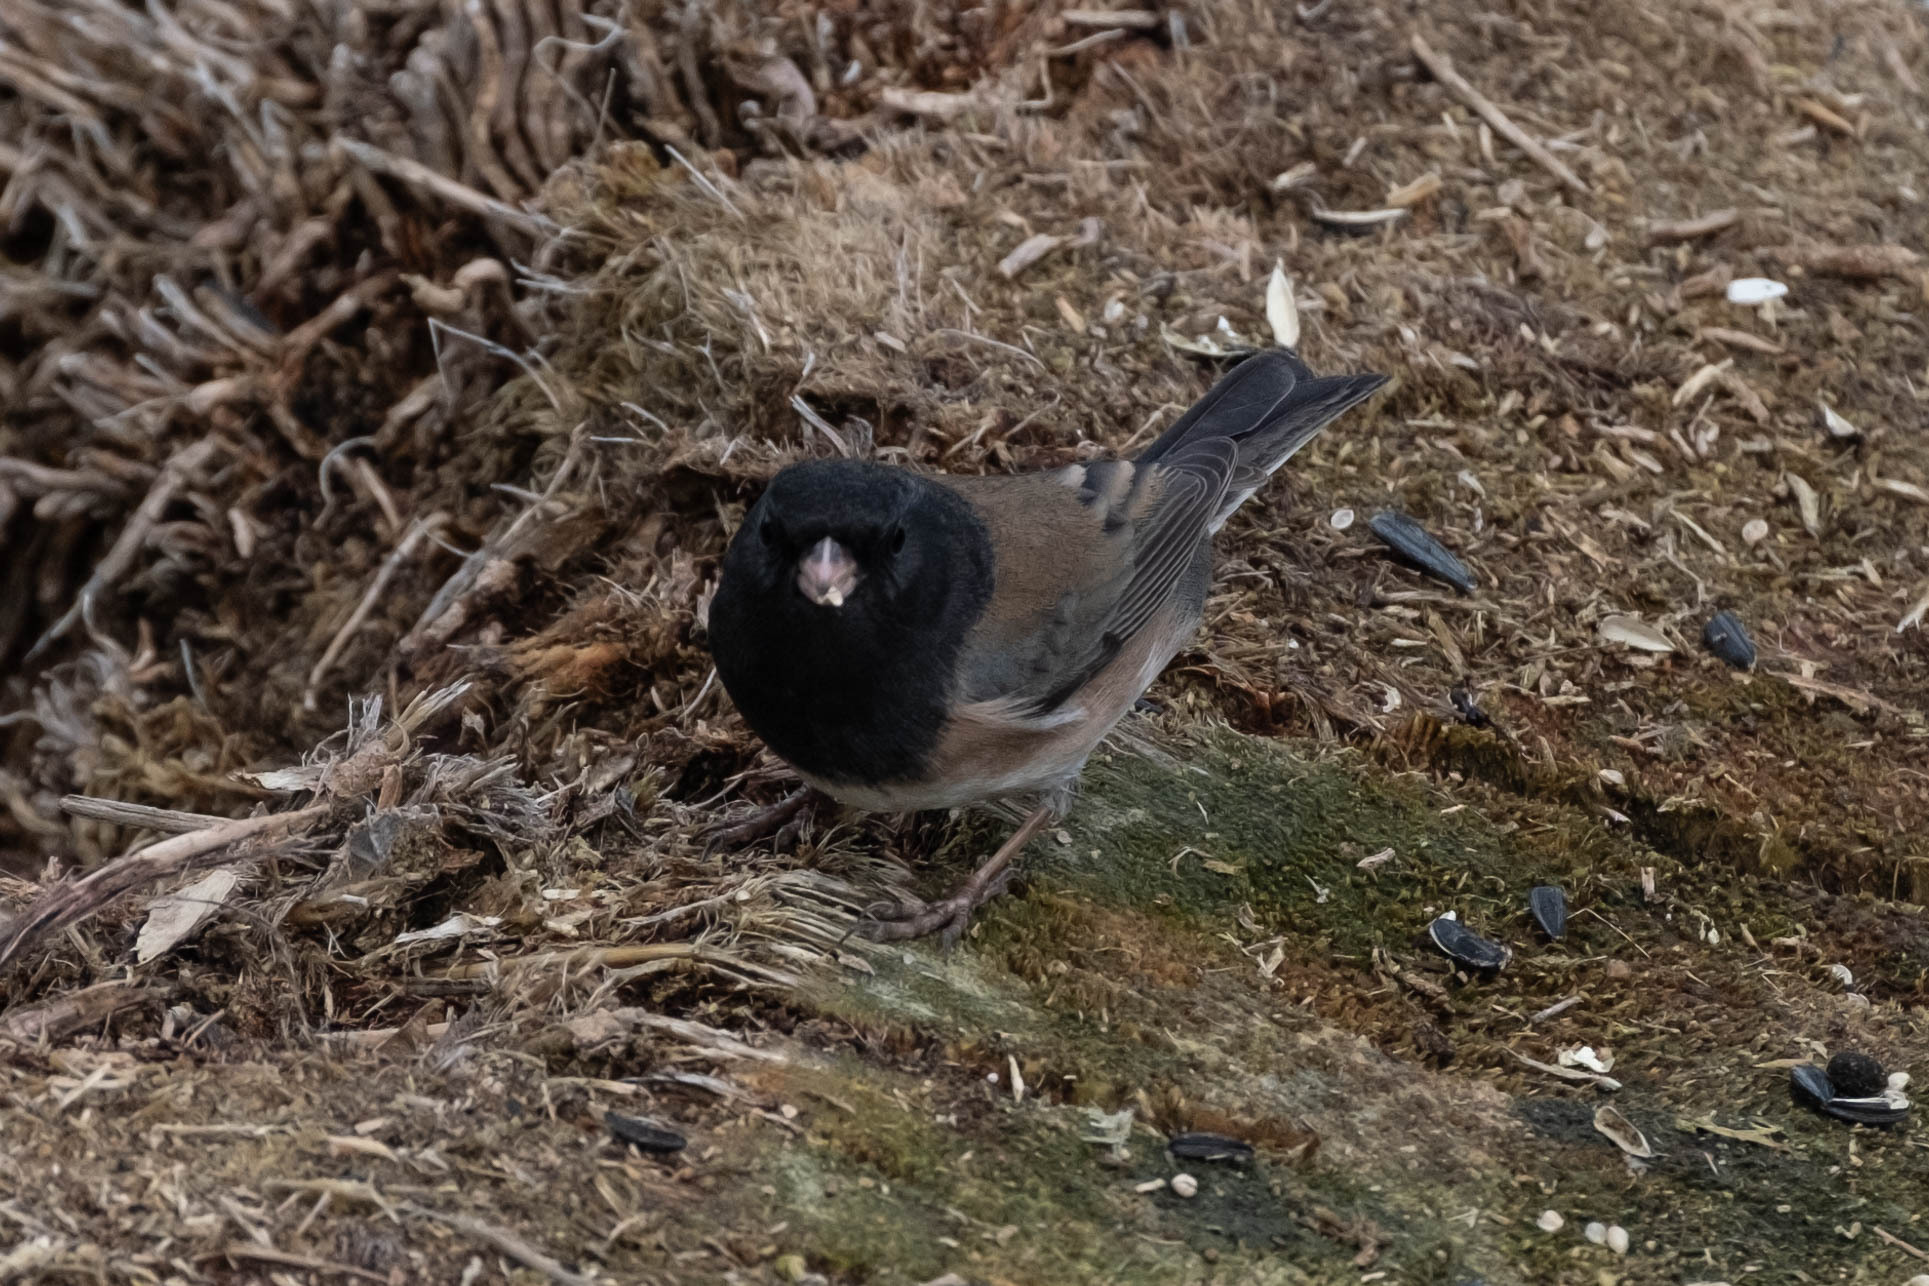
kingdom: Animalia
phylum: Chordata
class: Aves
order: Passeriformes
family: Passerellidae
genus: Junco
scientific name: Junco hyemalis
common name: Dark-eyed junco
